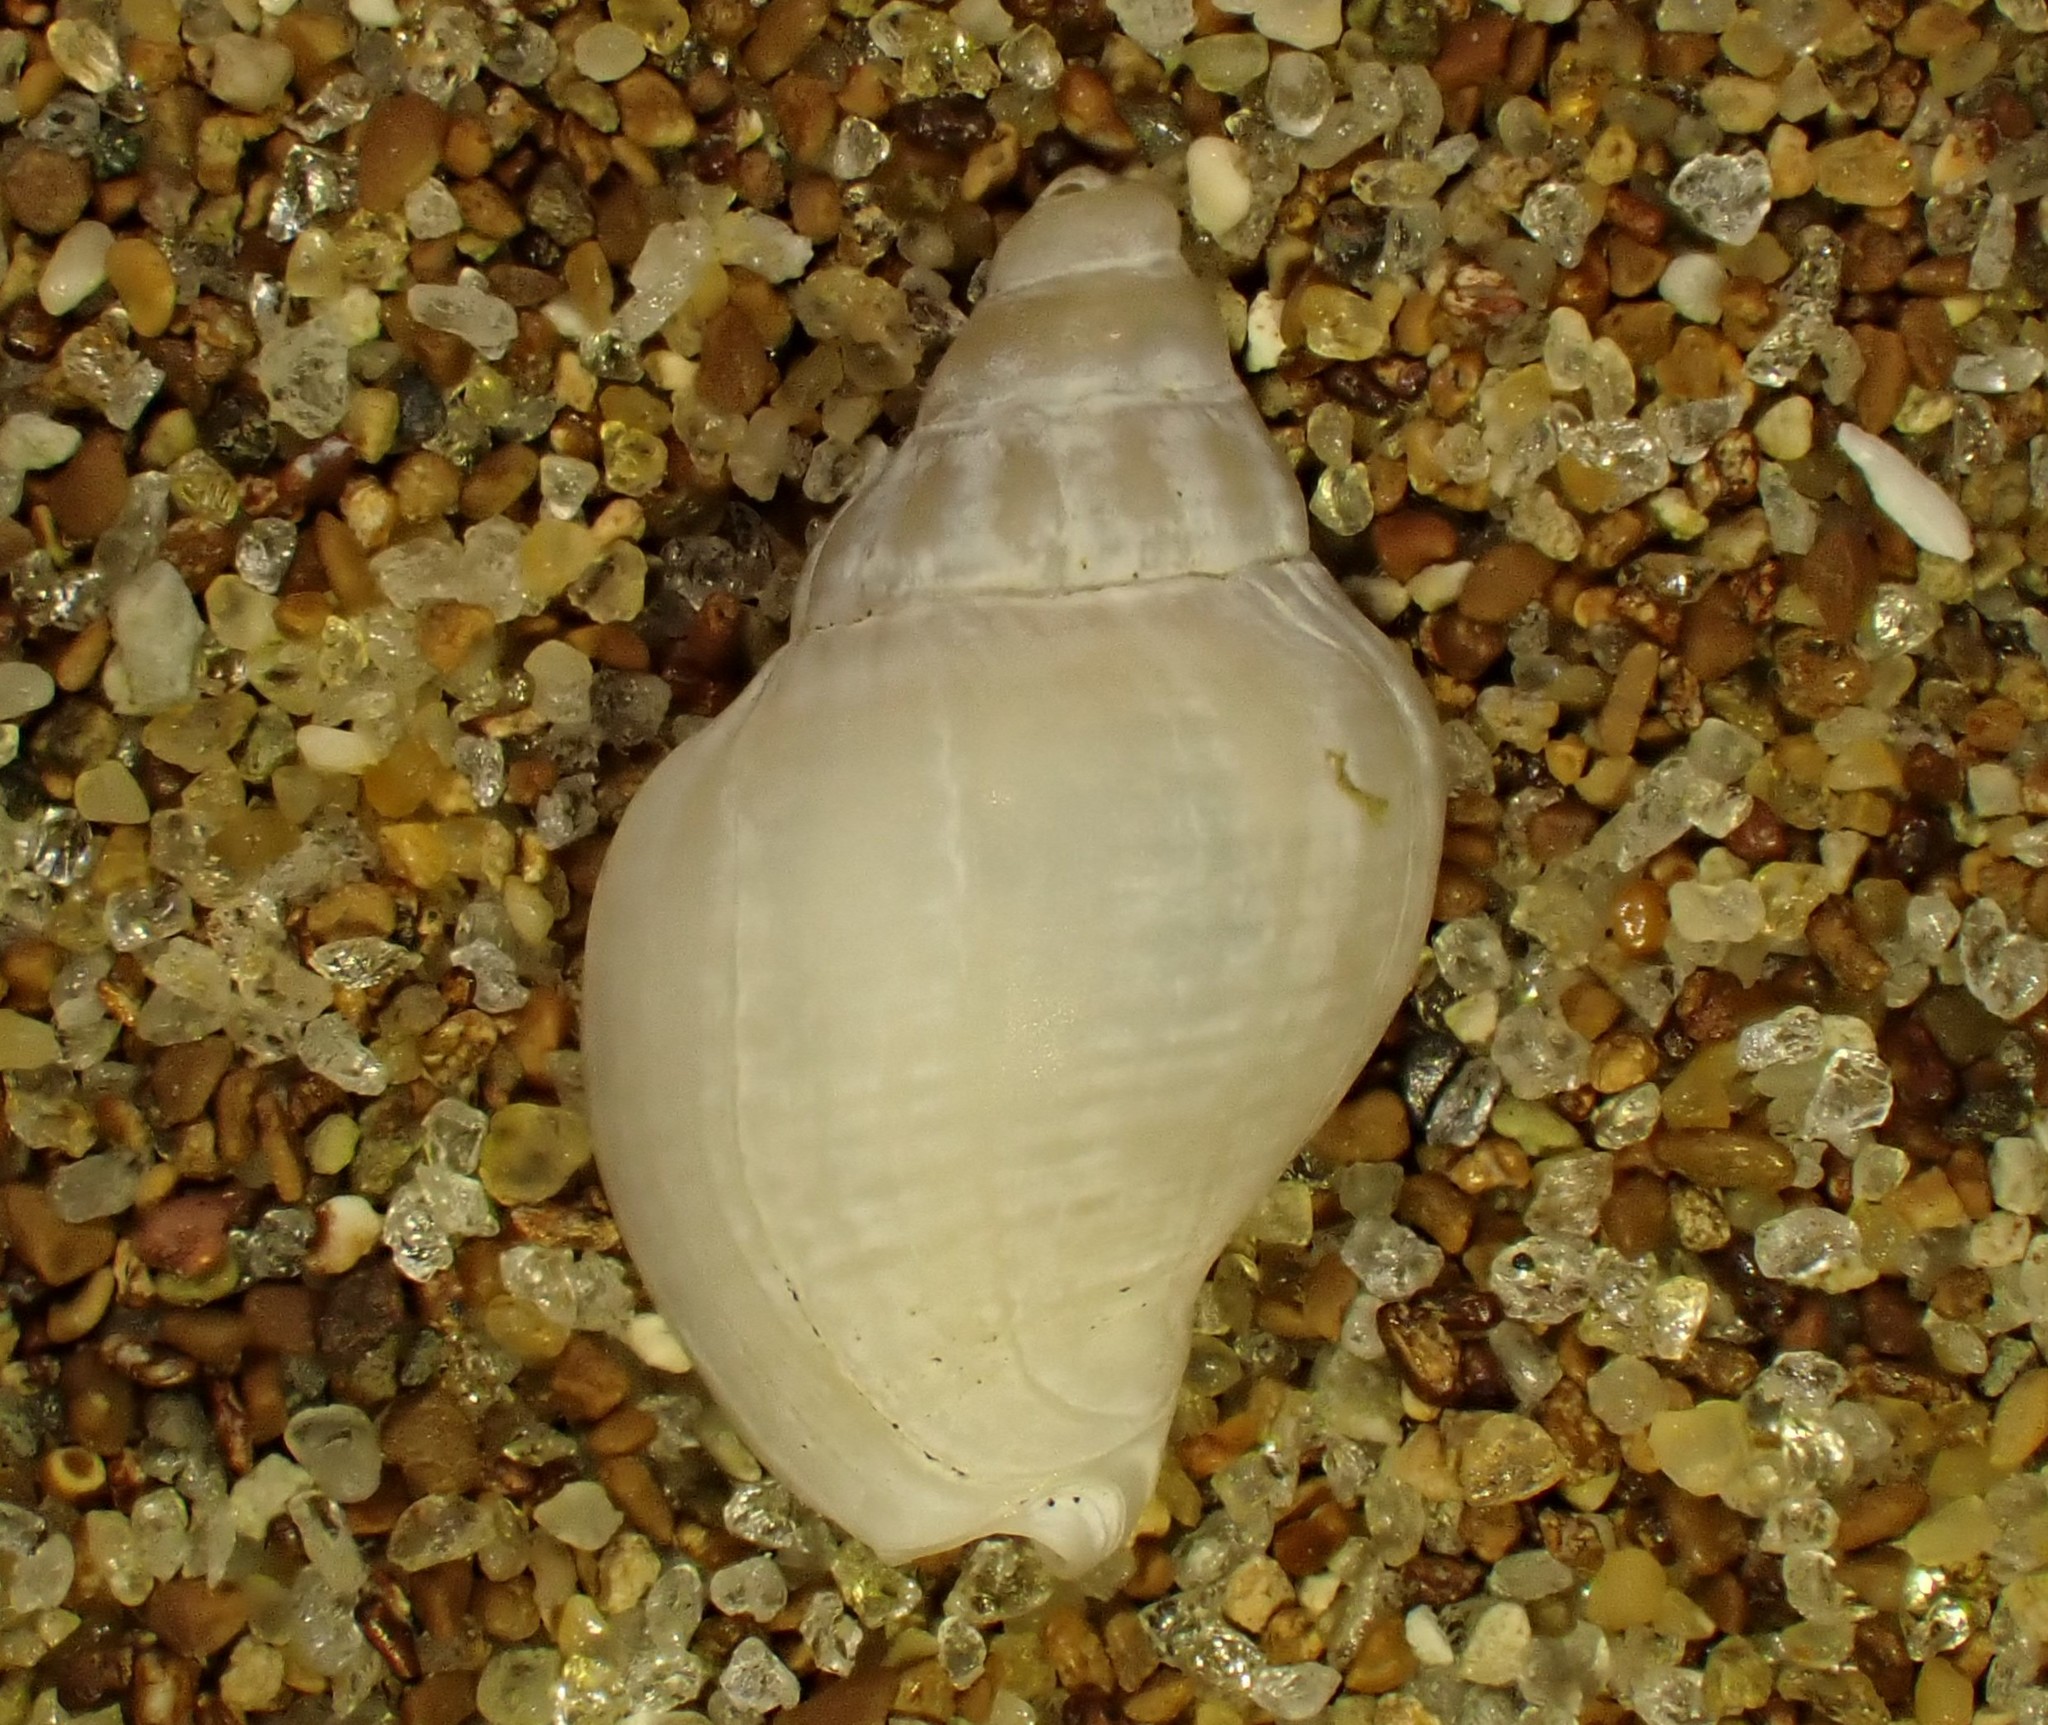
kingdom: Animalia
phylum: Mollusca
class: Gastropoda
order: Neogastropoda
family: Cominellidae
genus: Cominella
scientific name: Cominella adspersa
